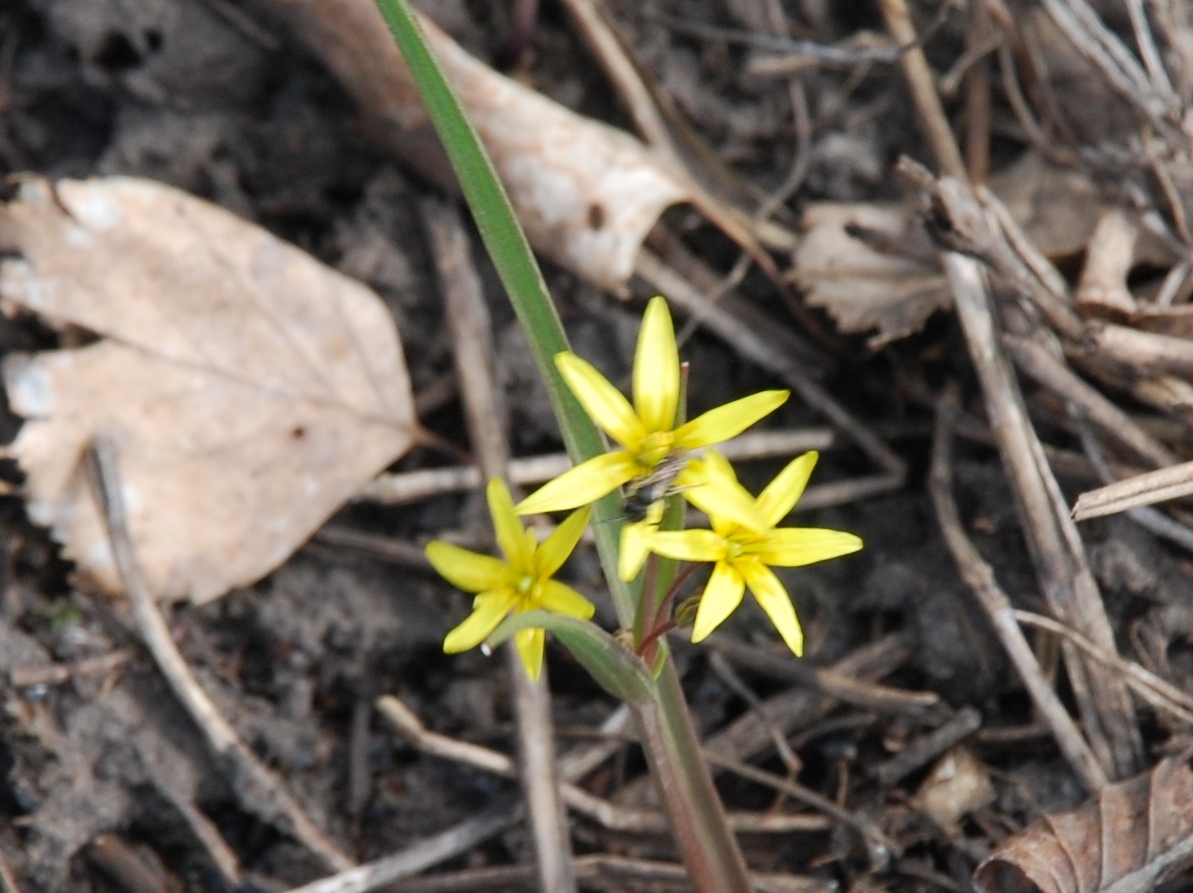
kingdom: Plantae
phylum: Tracheophyta
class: Liliopsida
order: Liliales
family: Liliaceae
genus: Gagea
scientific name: Gagea fragifera
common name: Lily
